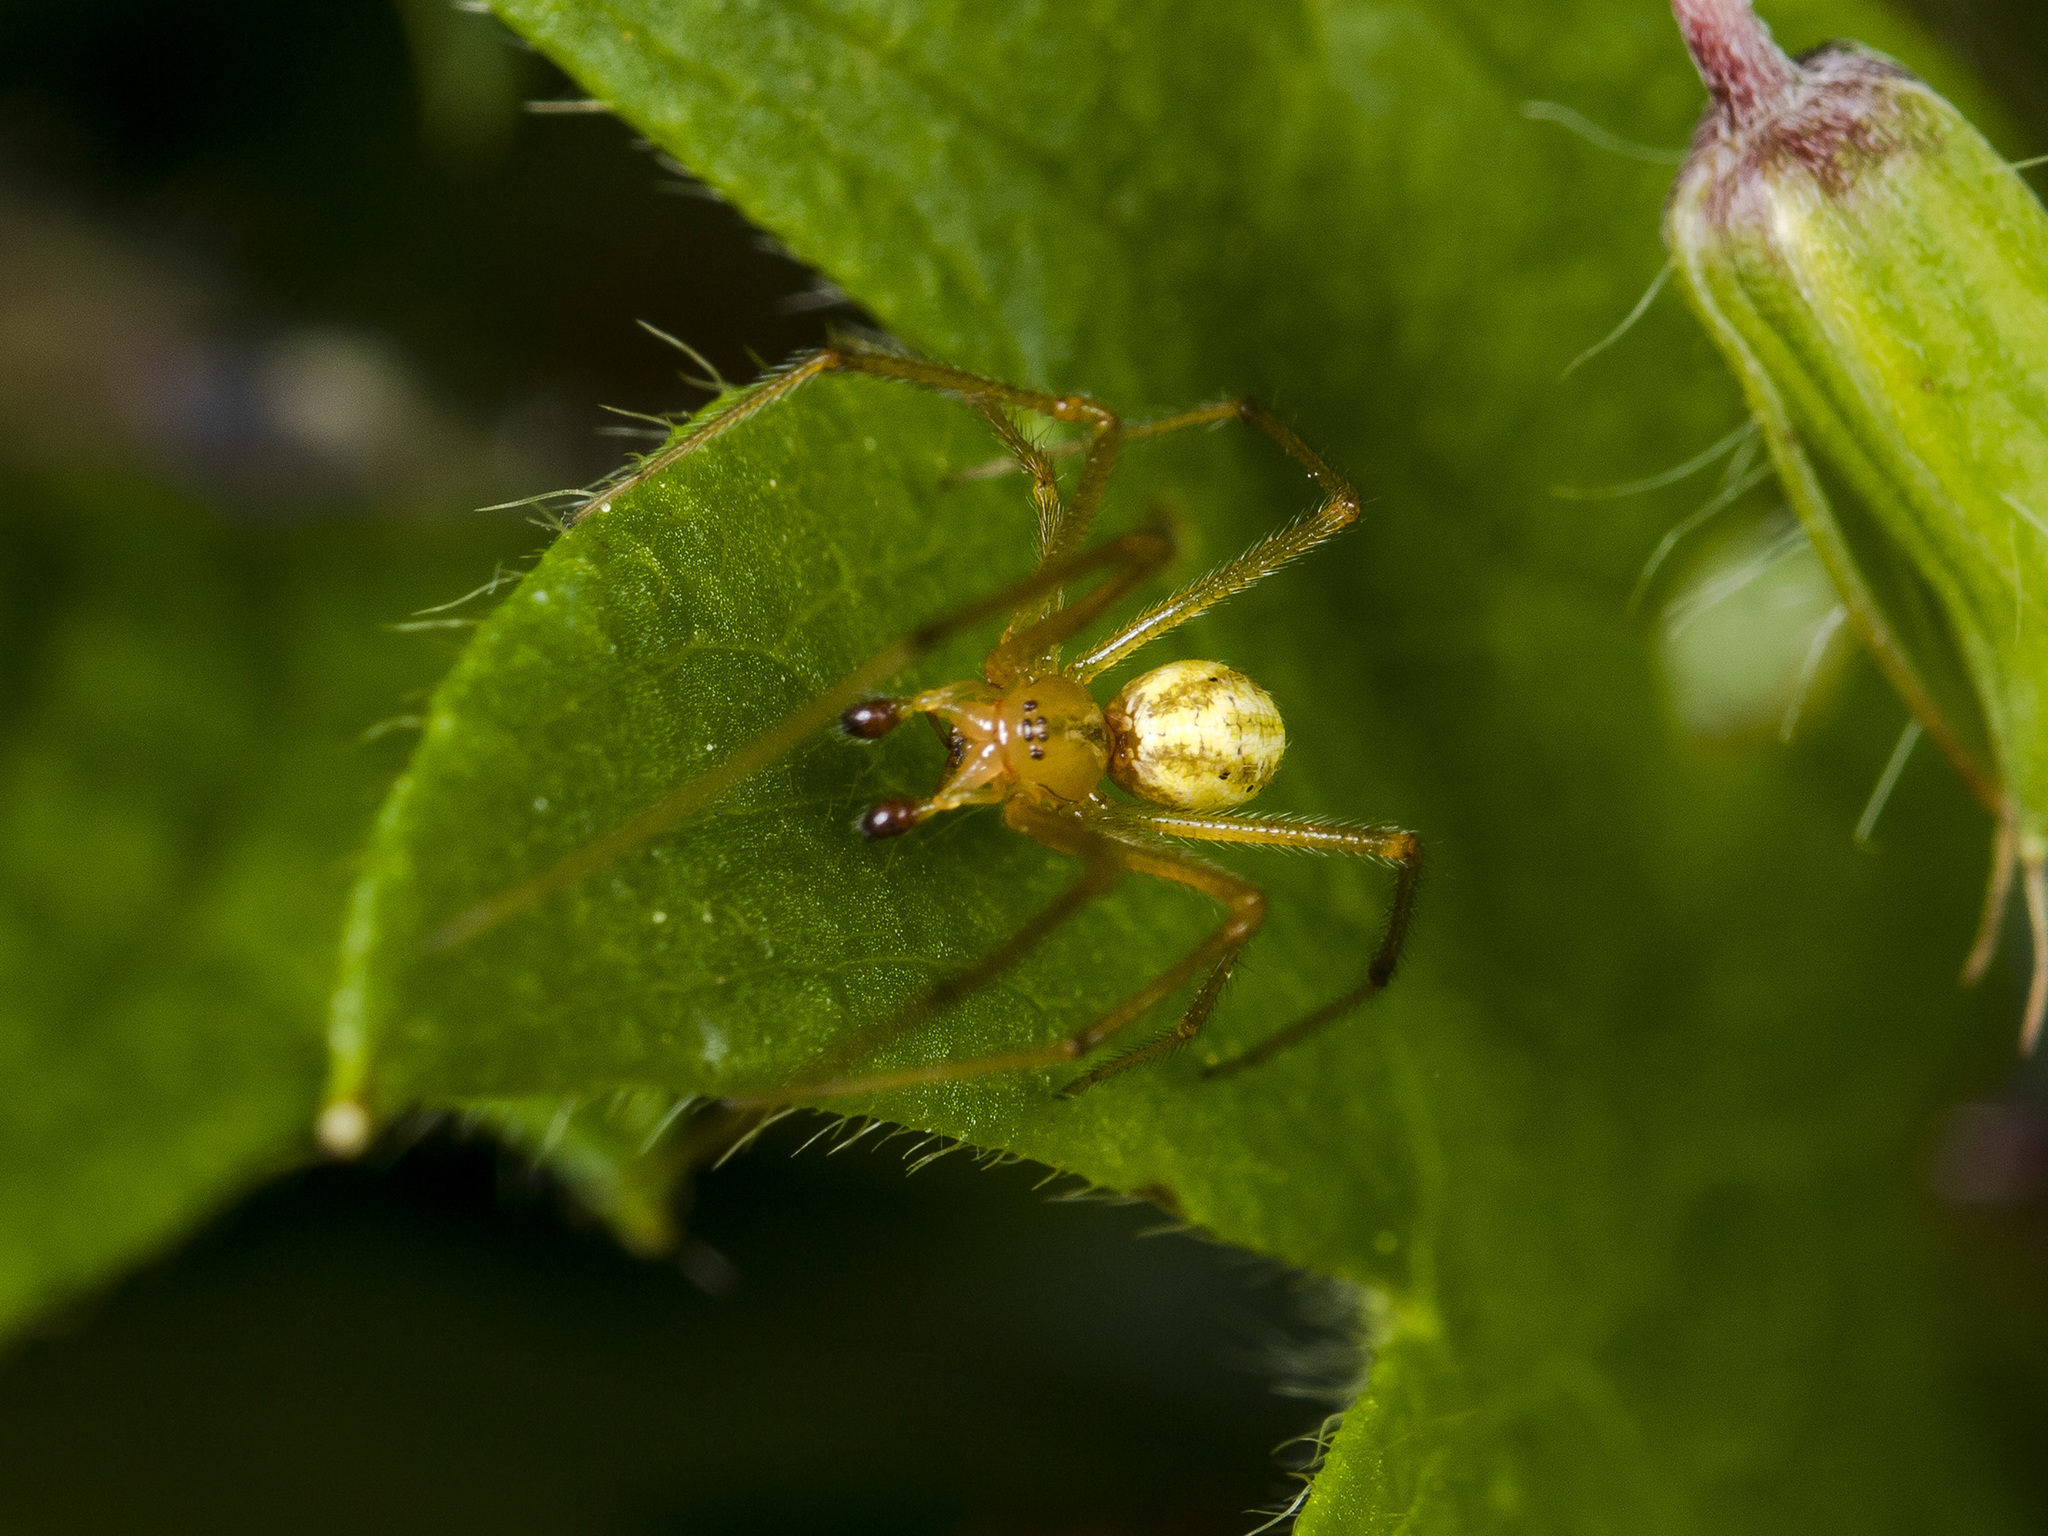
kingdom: Animalia
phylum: Arthropoda
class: Arachnida
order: Araneae
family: Theridiidae
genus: Enoplognatha
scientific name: Enoplognatha latimana
